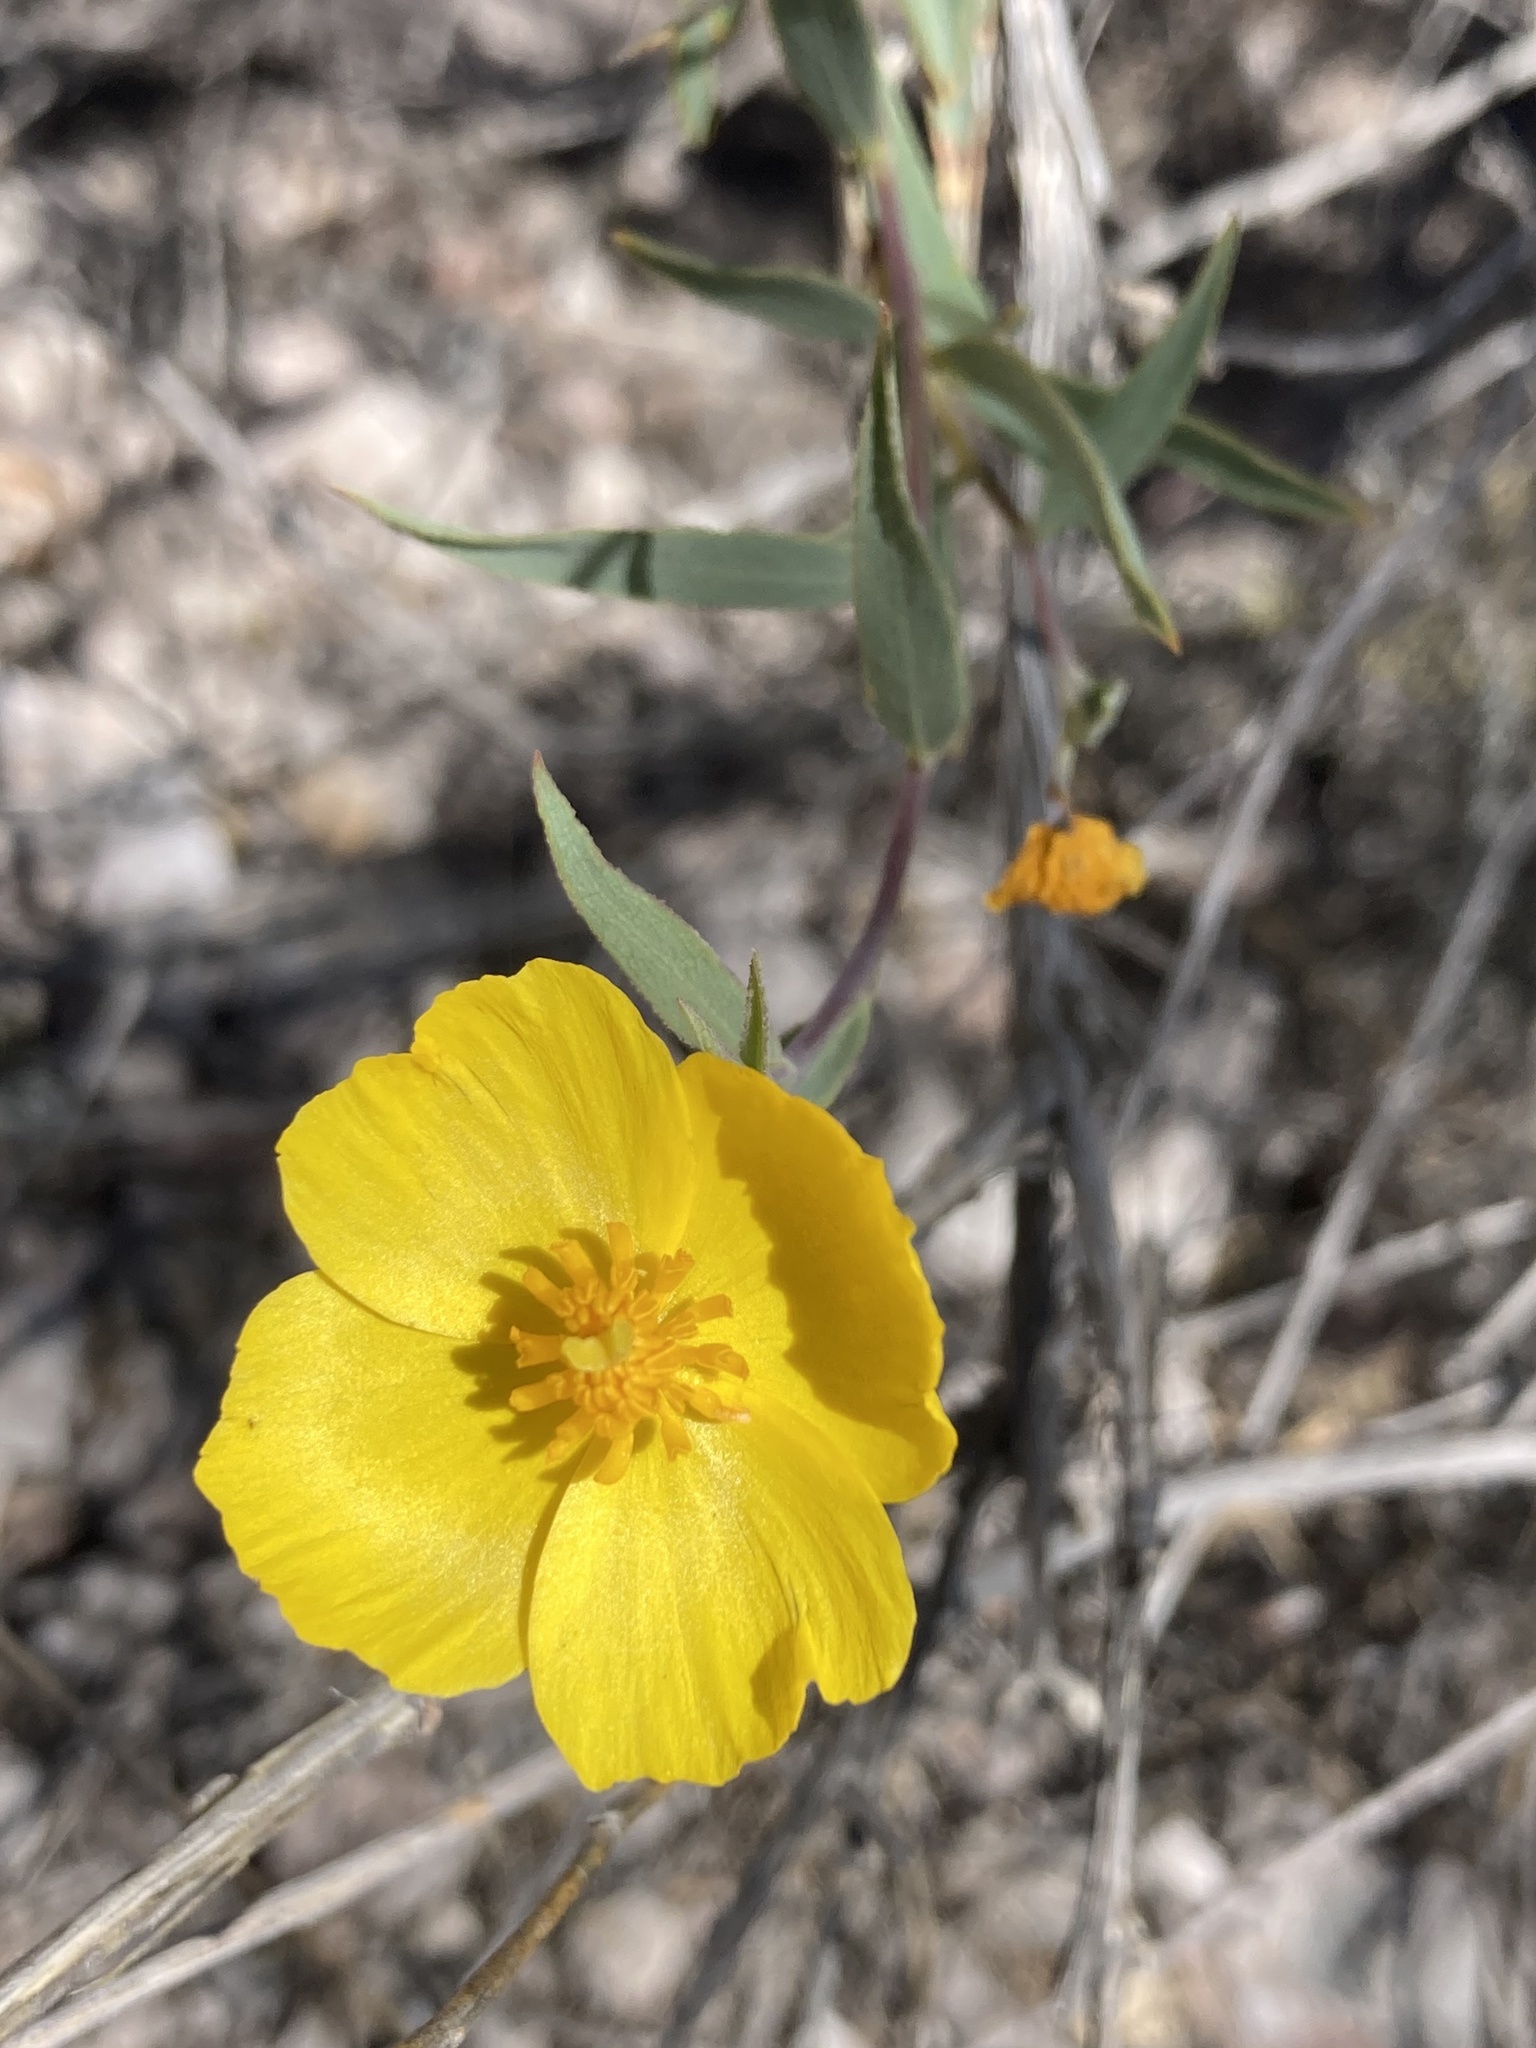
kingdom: Plantae
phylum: Tracheophyta
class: Magnoliopsida
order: Ranunculales
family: Papaveraceae
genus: Dendromecon
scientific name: Dendromecon rigida
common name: Tree poppy
